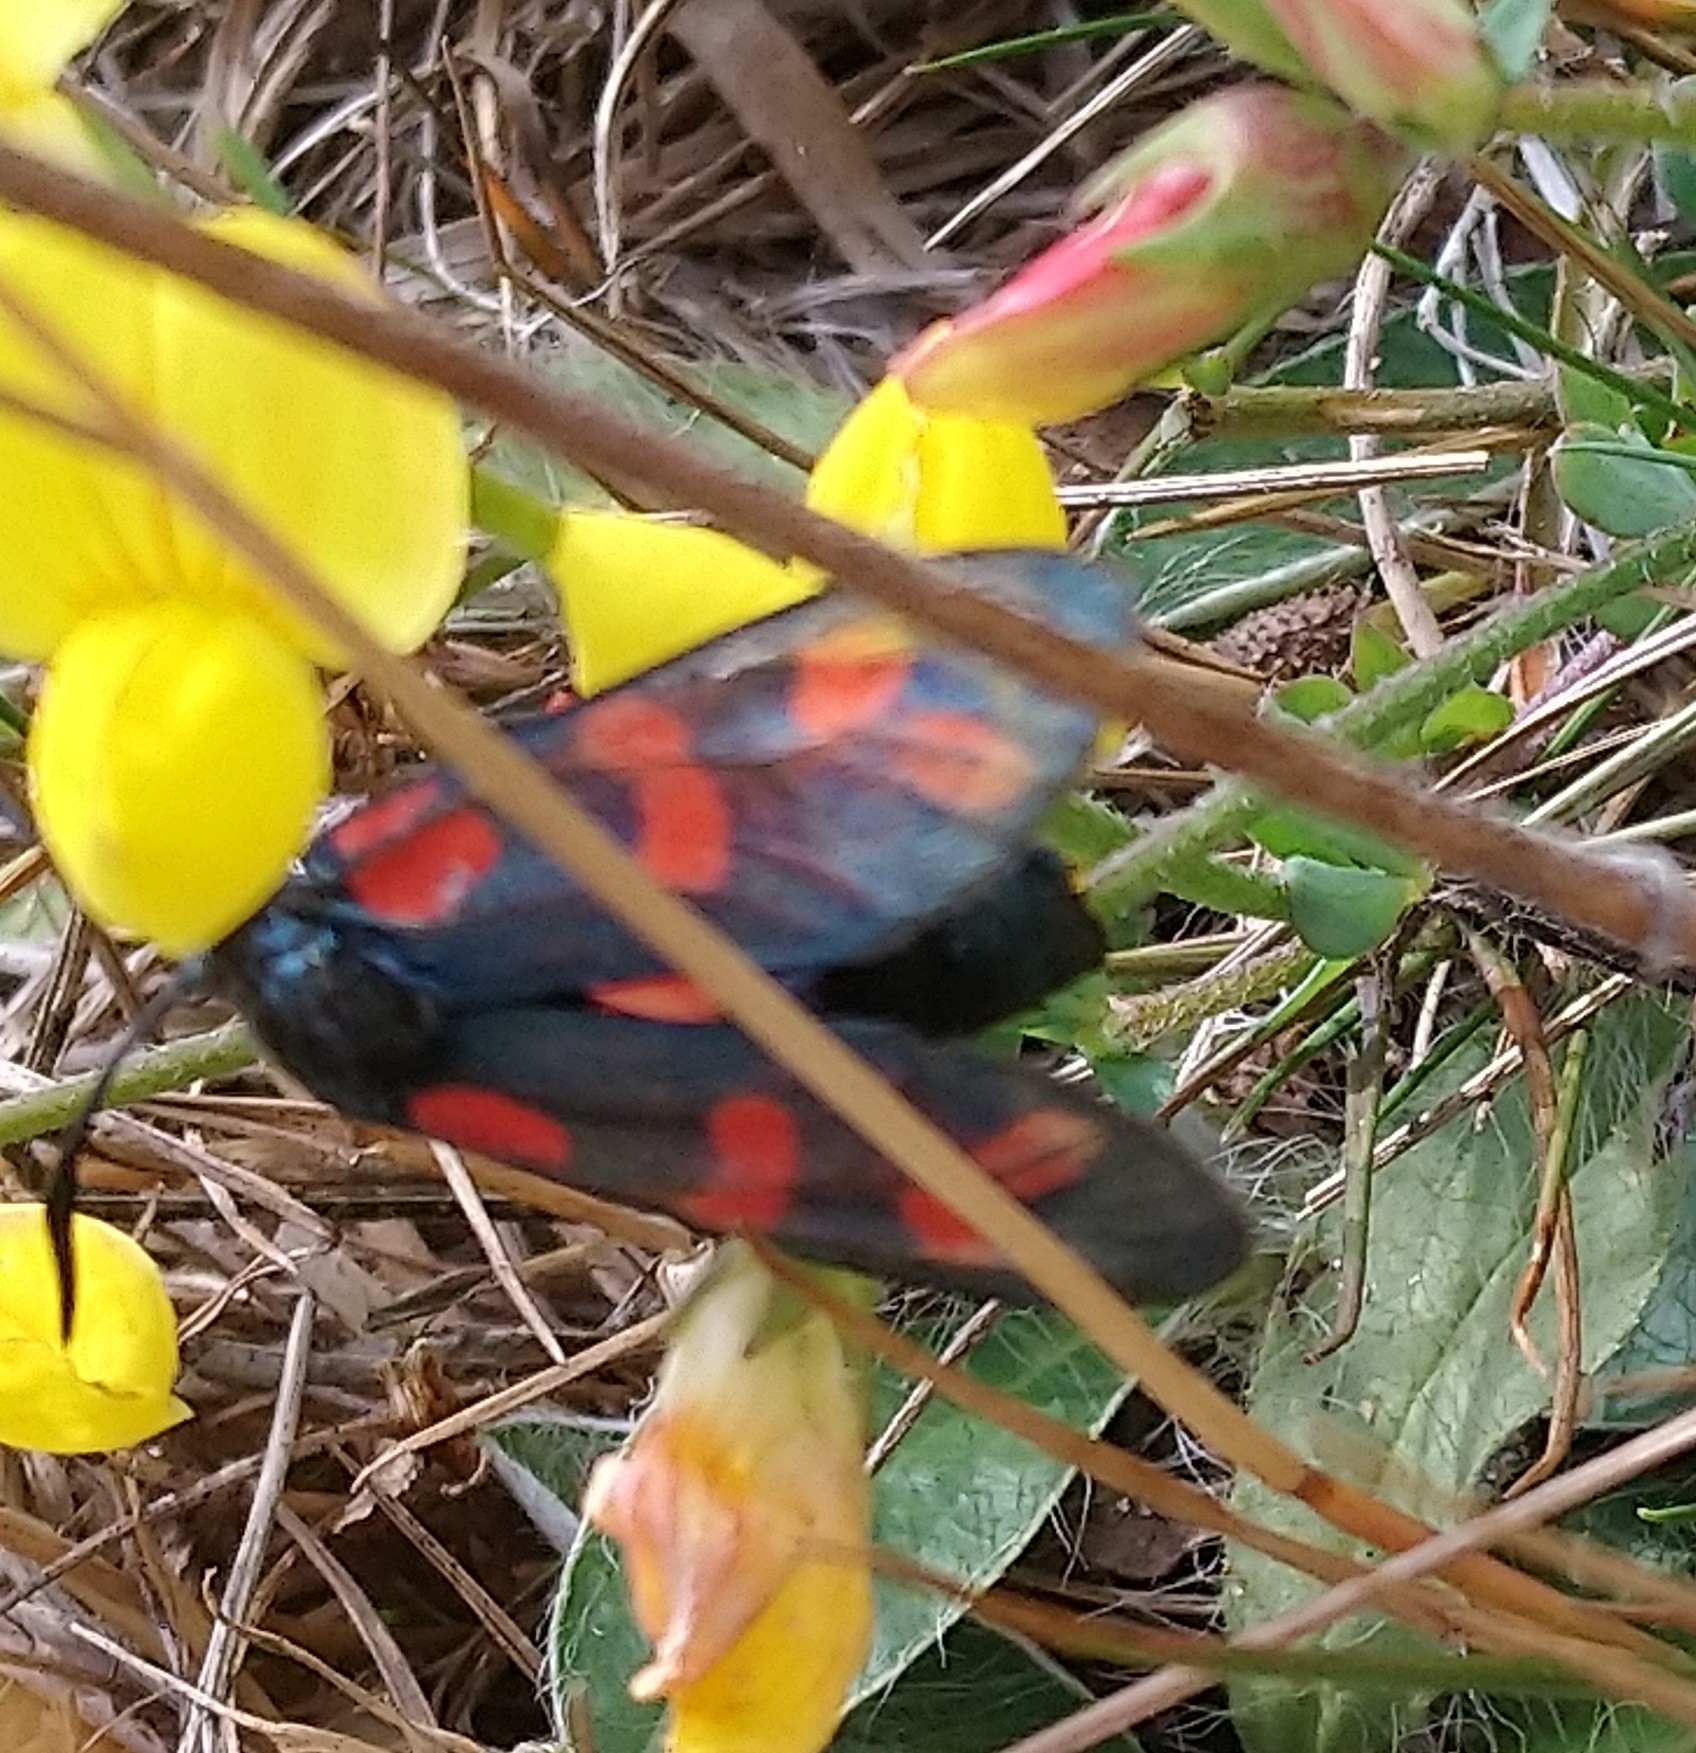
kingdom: Animalia
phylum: Arthropoda
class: Insecta
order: Lepidoptera
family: Zygaenidae
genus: Zygaena
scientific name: Zygaena filipendulae
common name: Six-spot burnet
